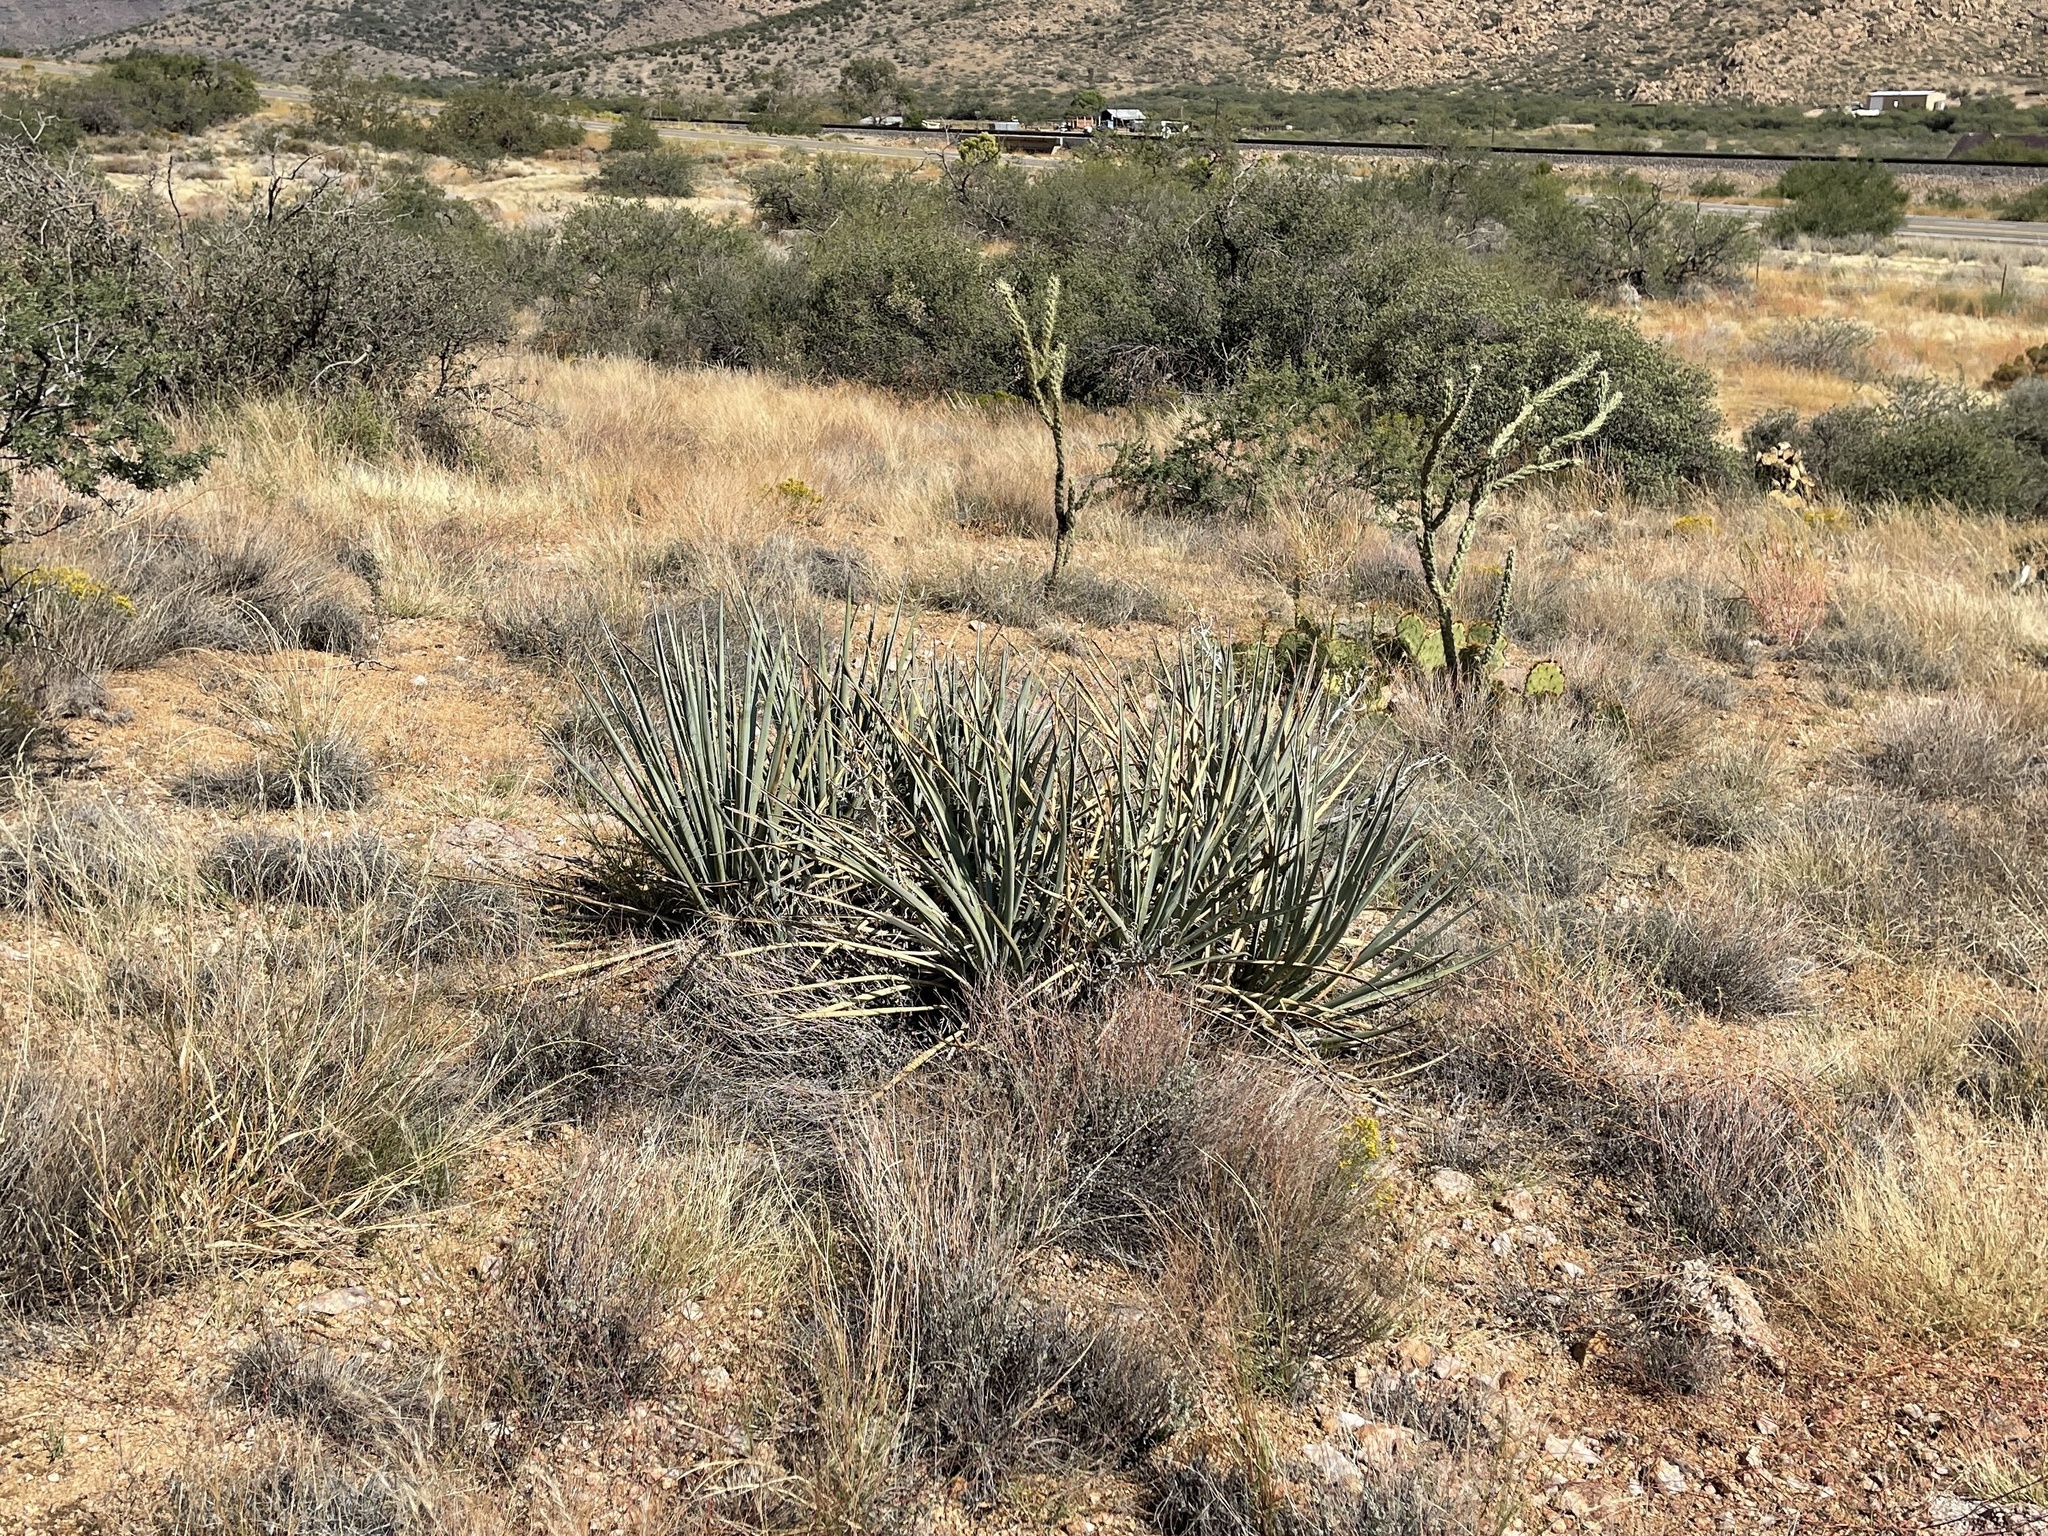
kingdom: Plantae
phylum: Tracheophyta
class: Liliopsida
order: Asparagales
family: Asparagaceae
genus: Yucca
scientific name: Yucca baccata
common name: Banana yucca
